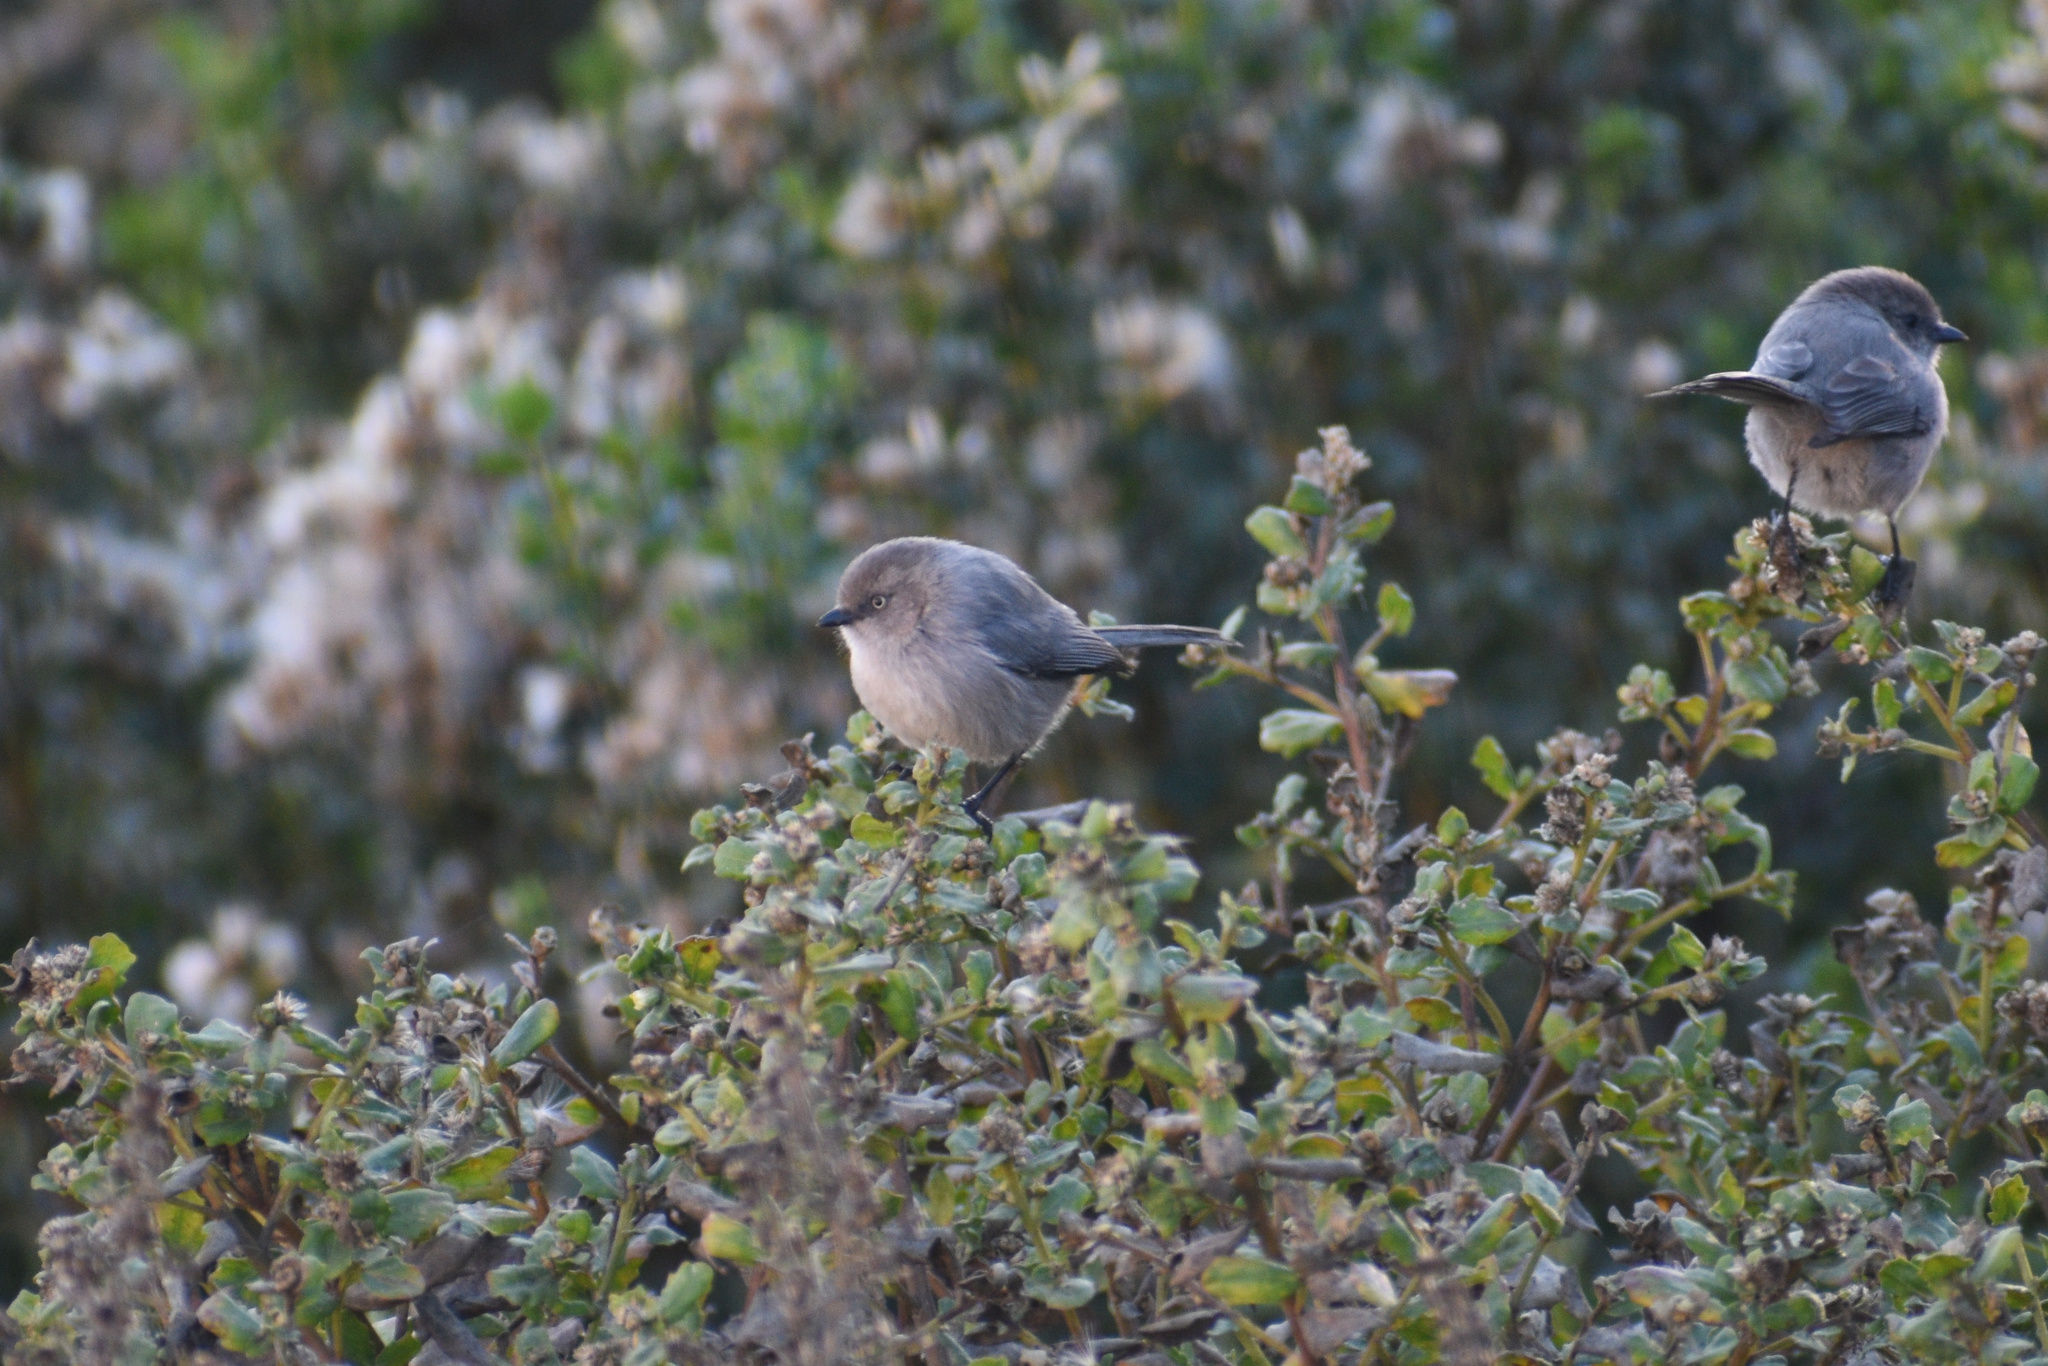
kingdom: Animalia
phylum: Chordata
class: Aves
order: Passeriformes
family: Aegithalidae
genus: Psaltriparus
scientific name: Psaltriparus minimus
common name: American bushtit
